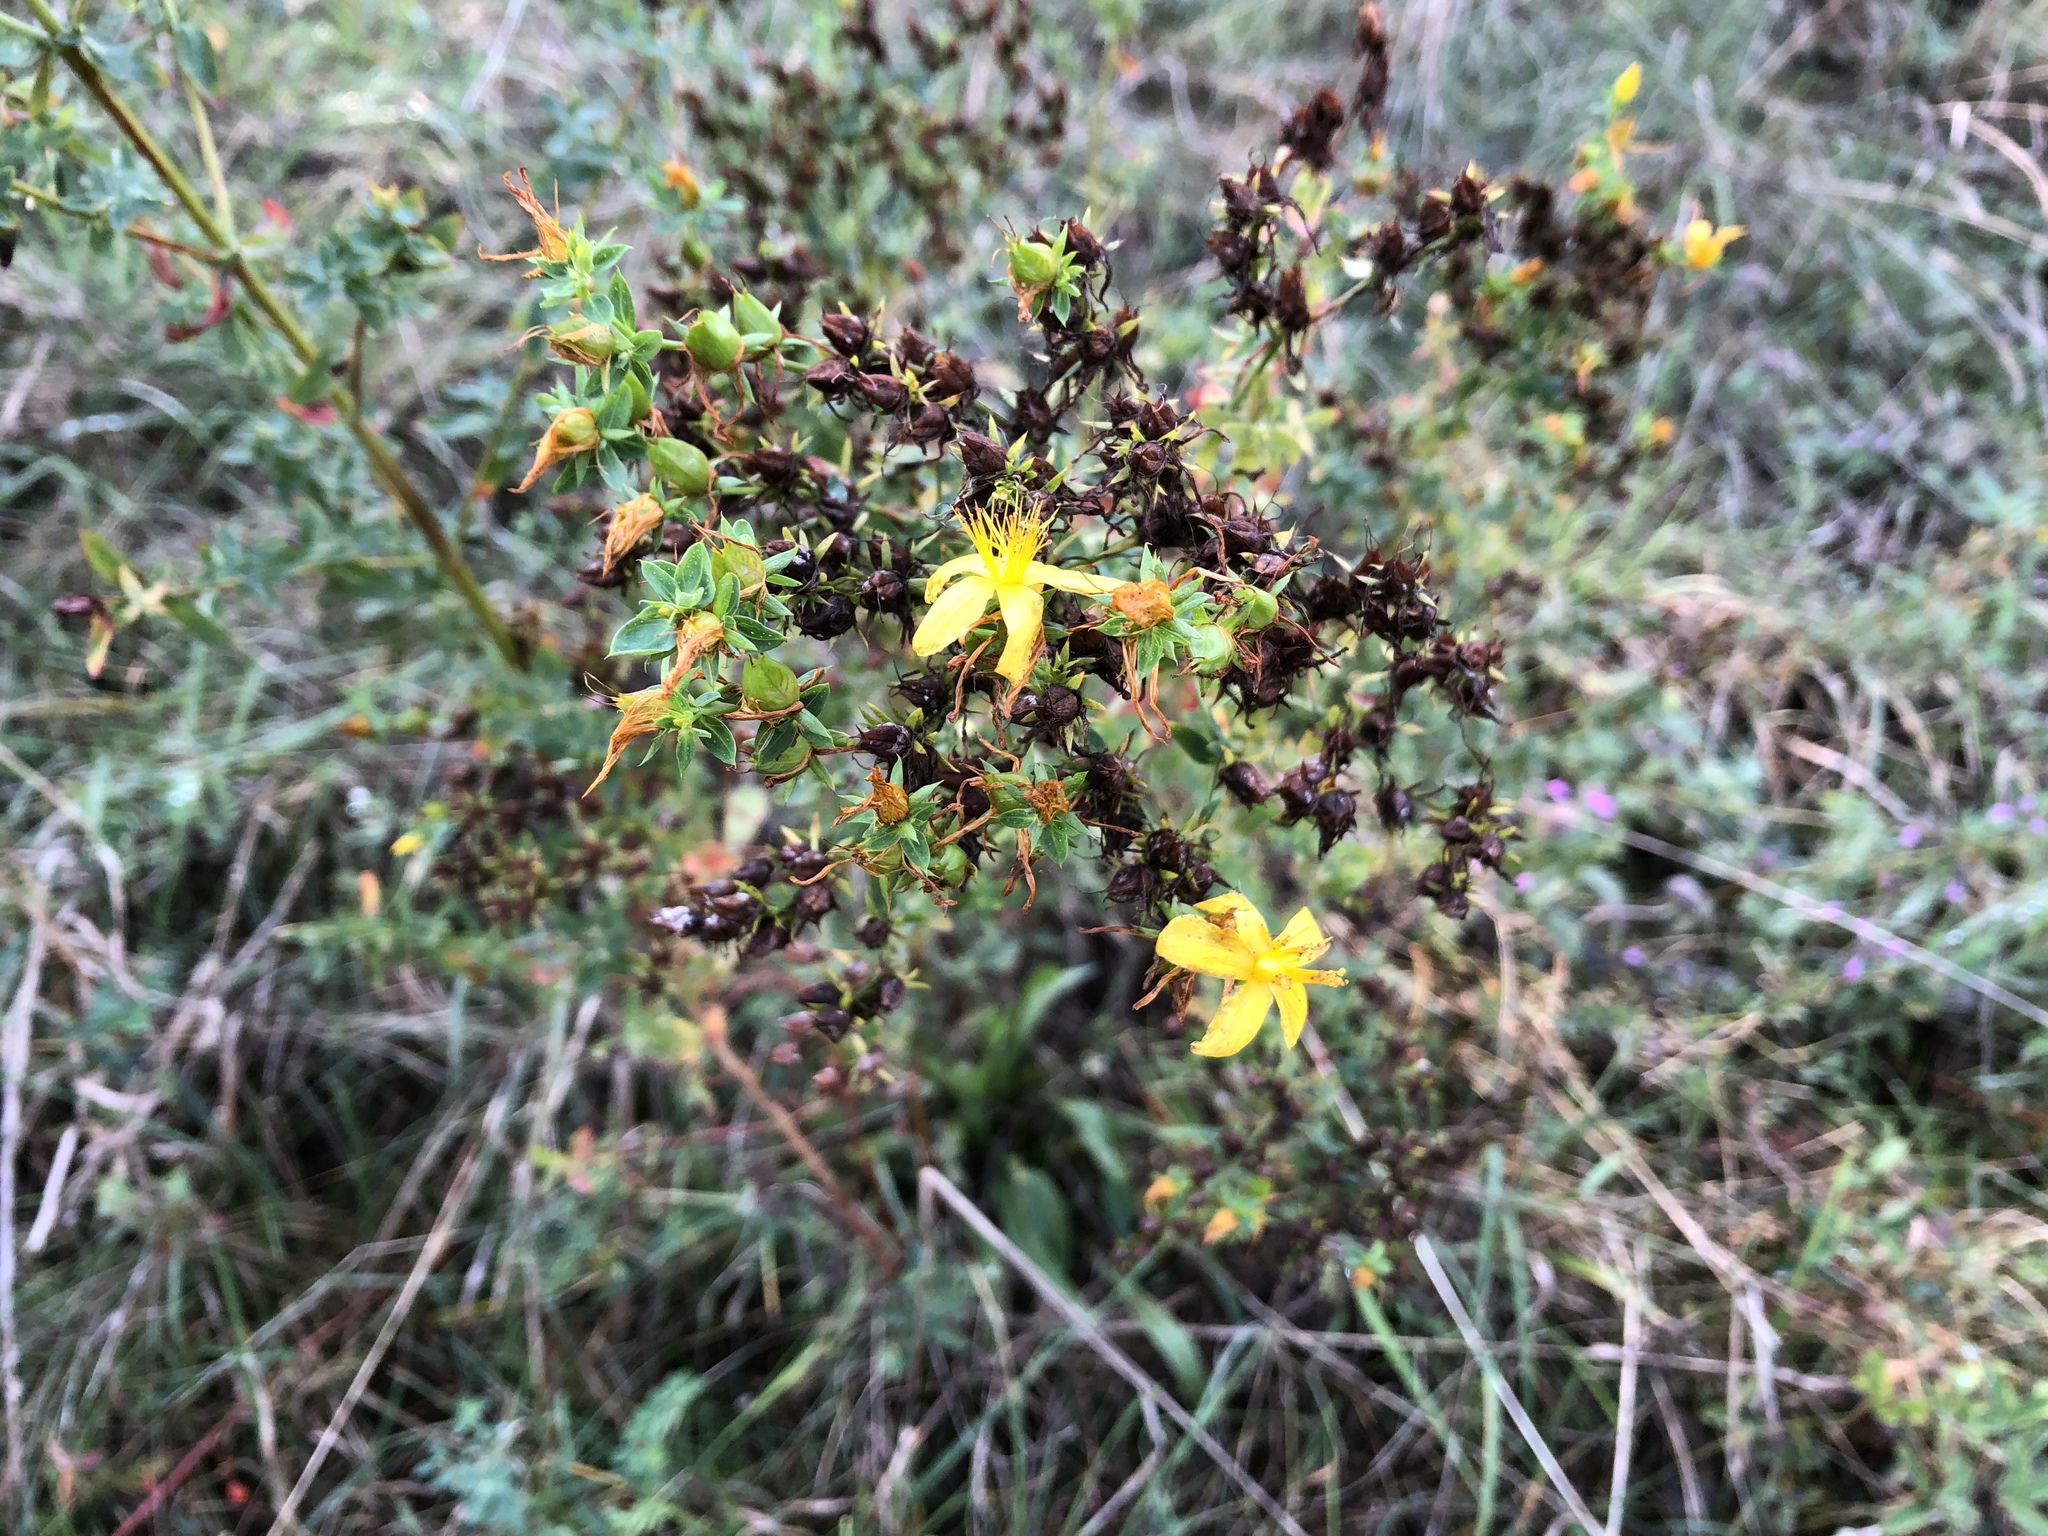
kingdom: Plantae
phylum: Tracheophyta
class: Magnoliopsida
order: Malpighiales
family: Hypericaceae
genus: Hypericum
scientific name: Hypericum perforatum
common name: Common st. johnswort
